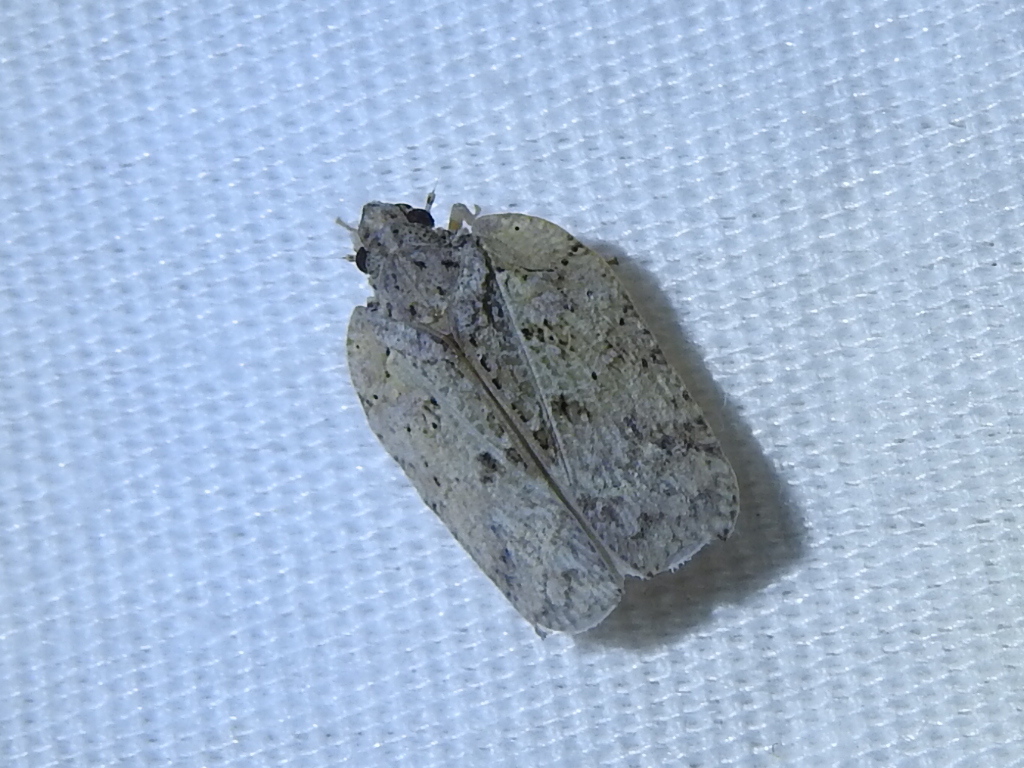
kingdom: Animalia
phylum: Arthropoda
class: Insecta
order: Hemiptera
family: Flatidae
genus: Flatoidinus
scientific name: Flatoidinus punctatus
